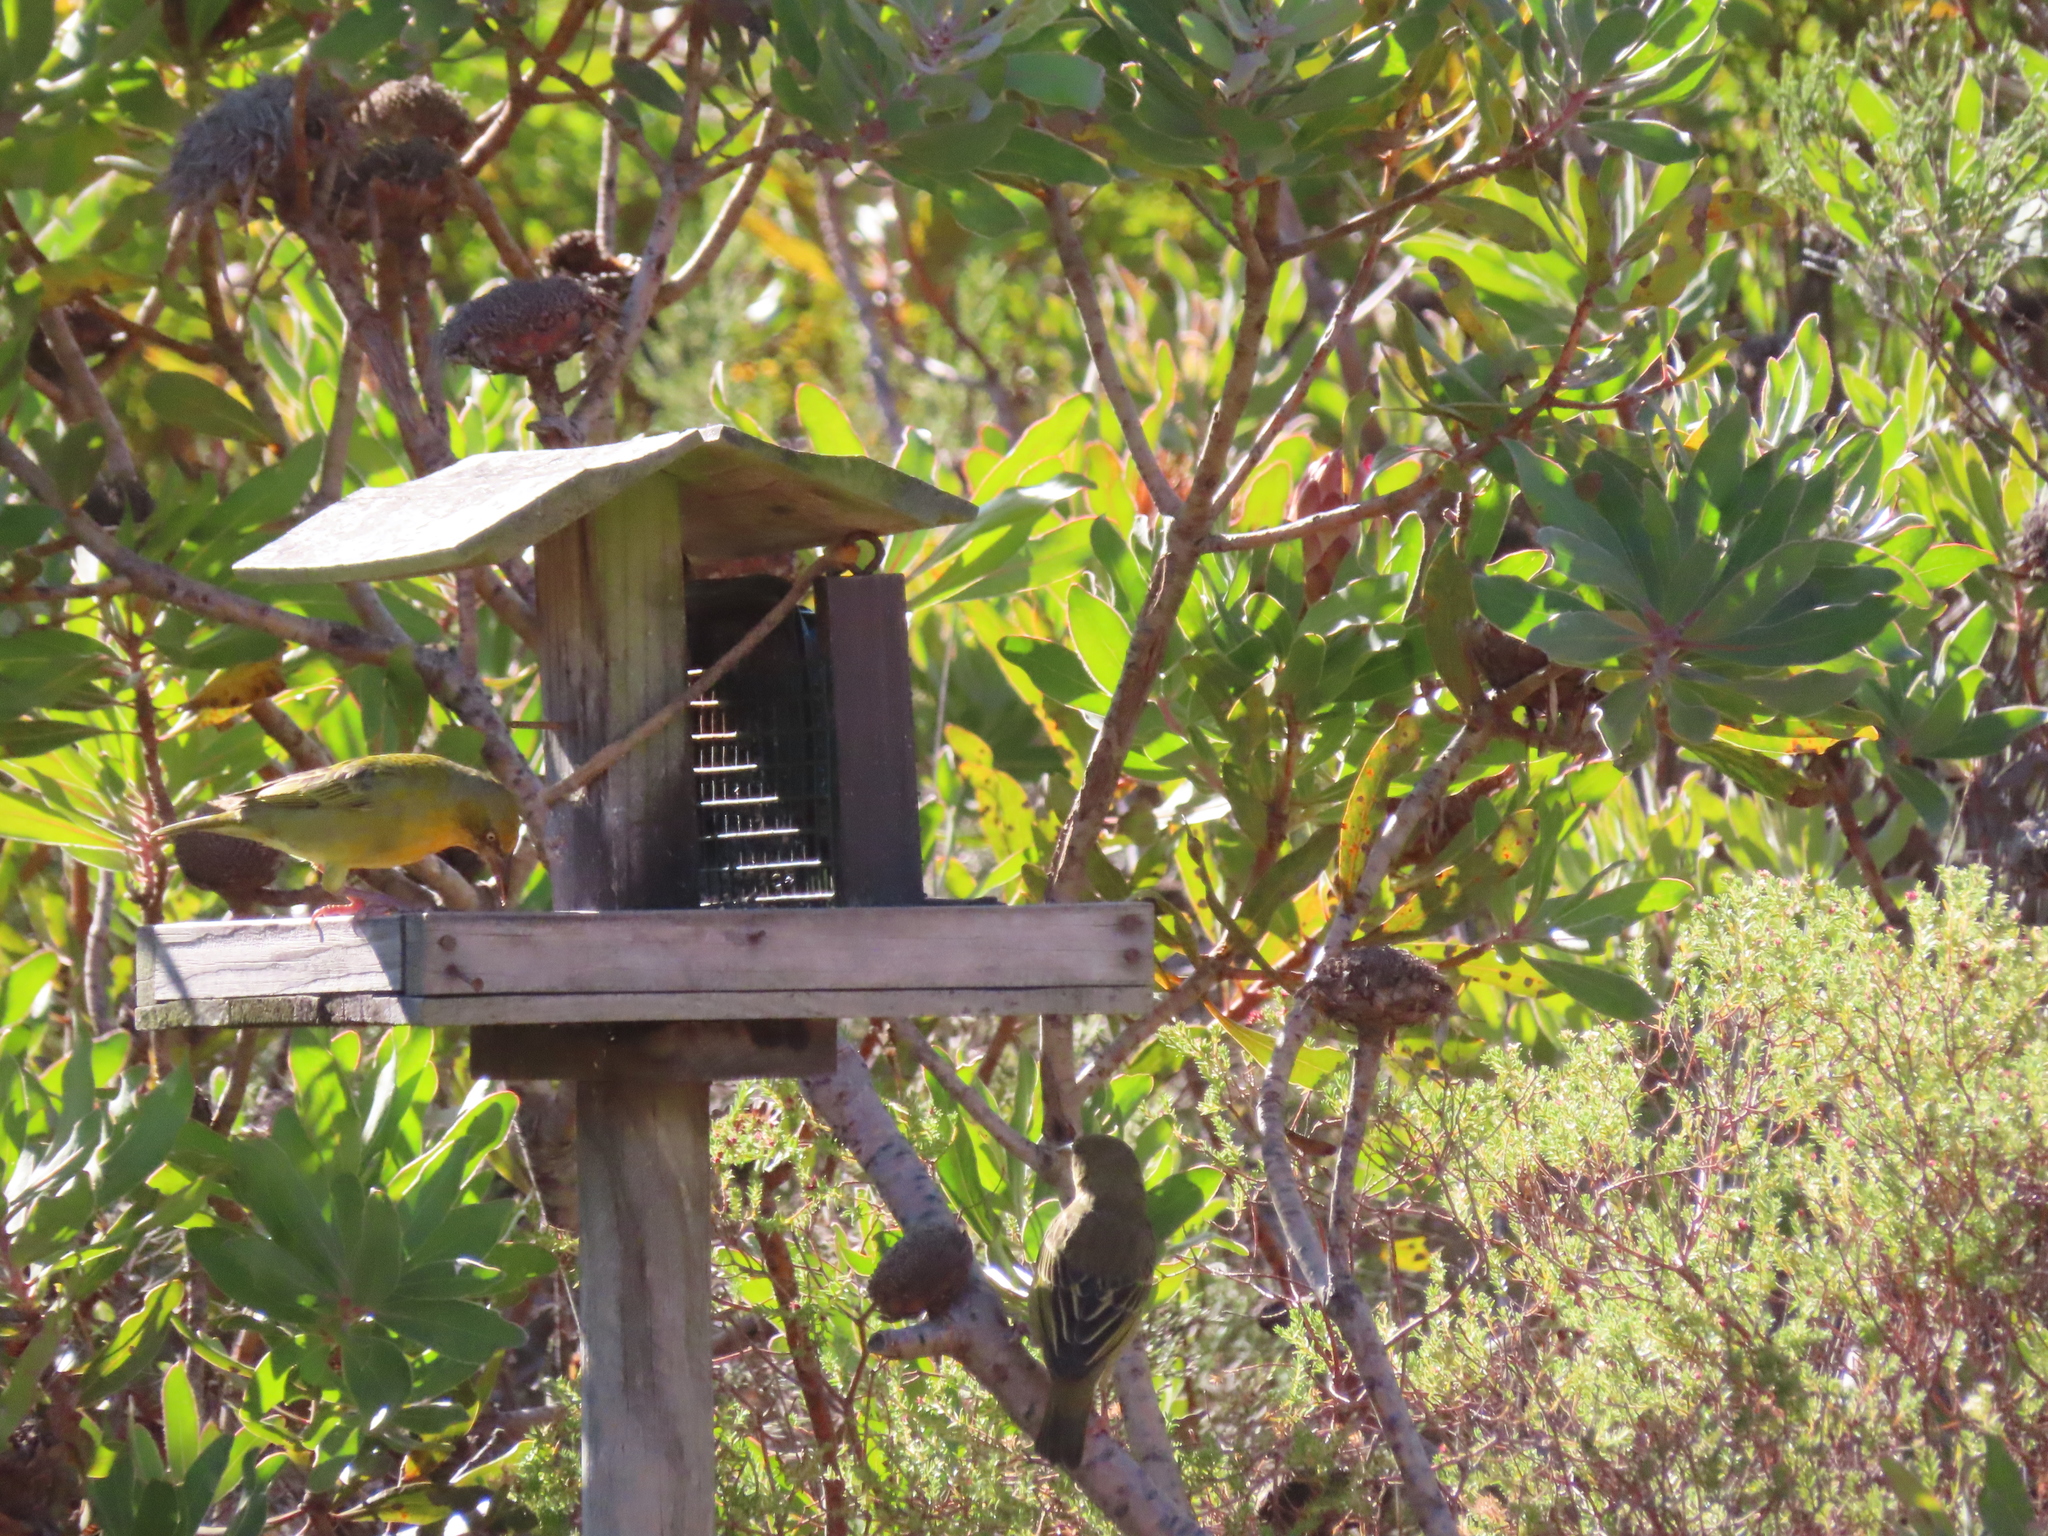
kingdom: Animalia
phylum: Chordata
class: Aves
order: Passeriformes
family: Ploceidae
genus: Ploceus
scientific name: Ploceus capensis
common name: Cape weaver
